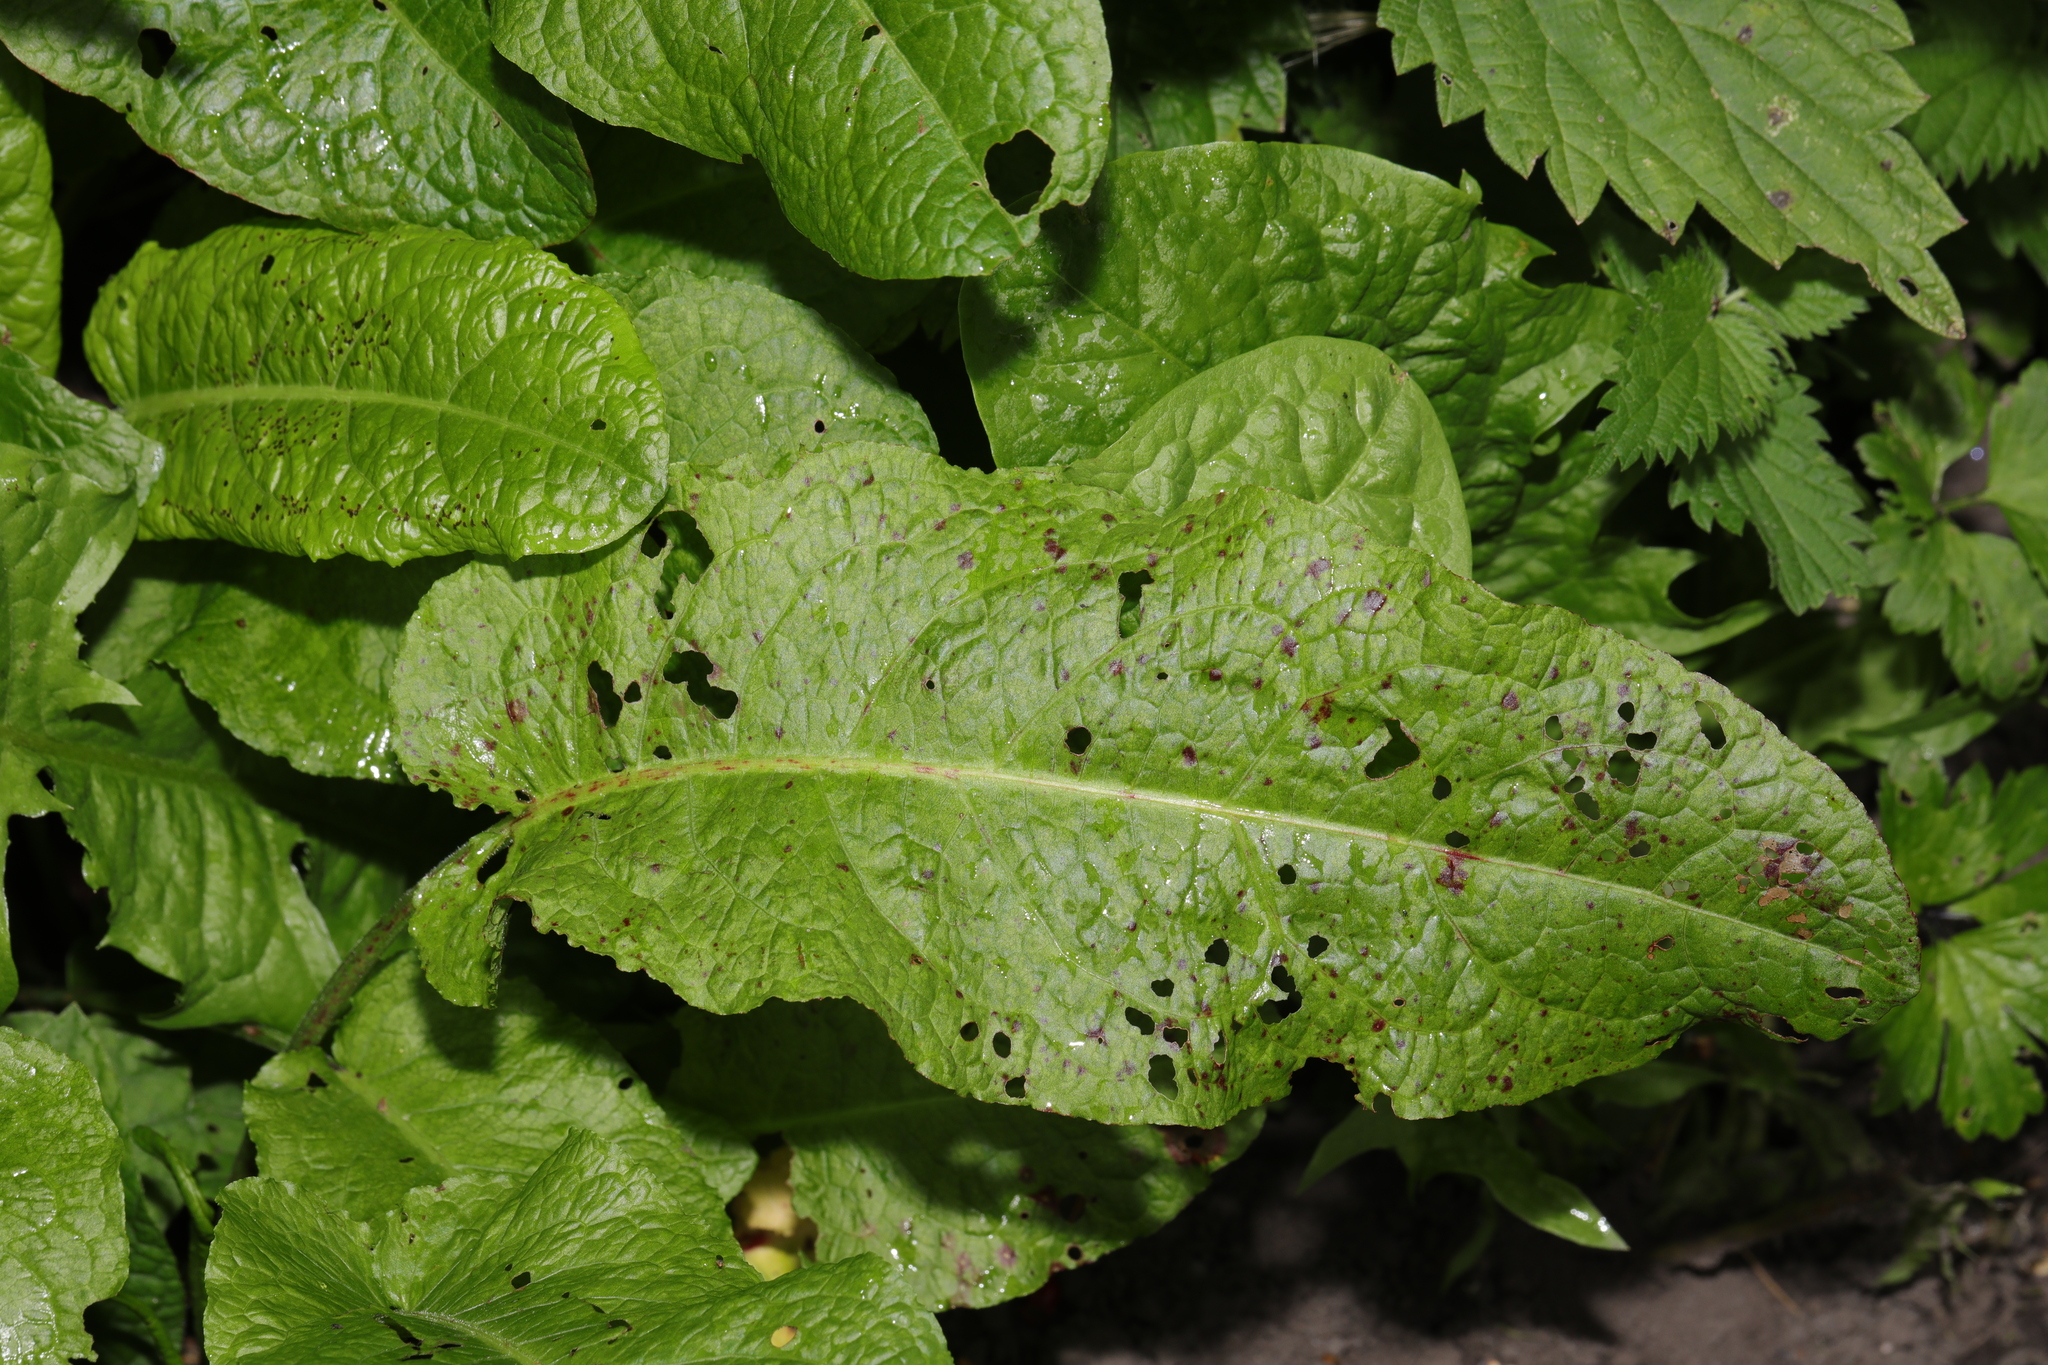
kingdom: Plantae
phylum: Tracheophyta
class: Magnoliopsida
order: Caryophyllales
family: Polygonaceae
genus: Rumex
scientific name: Rumex obtusifolius
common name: Bitter dock
